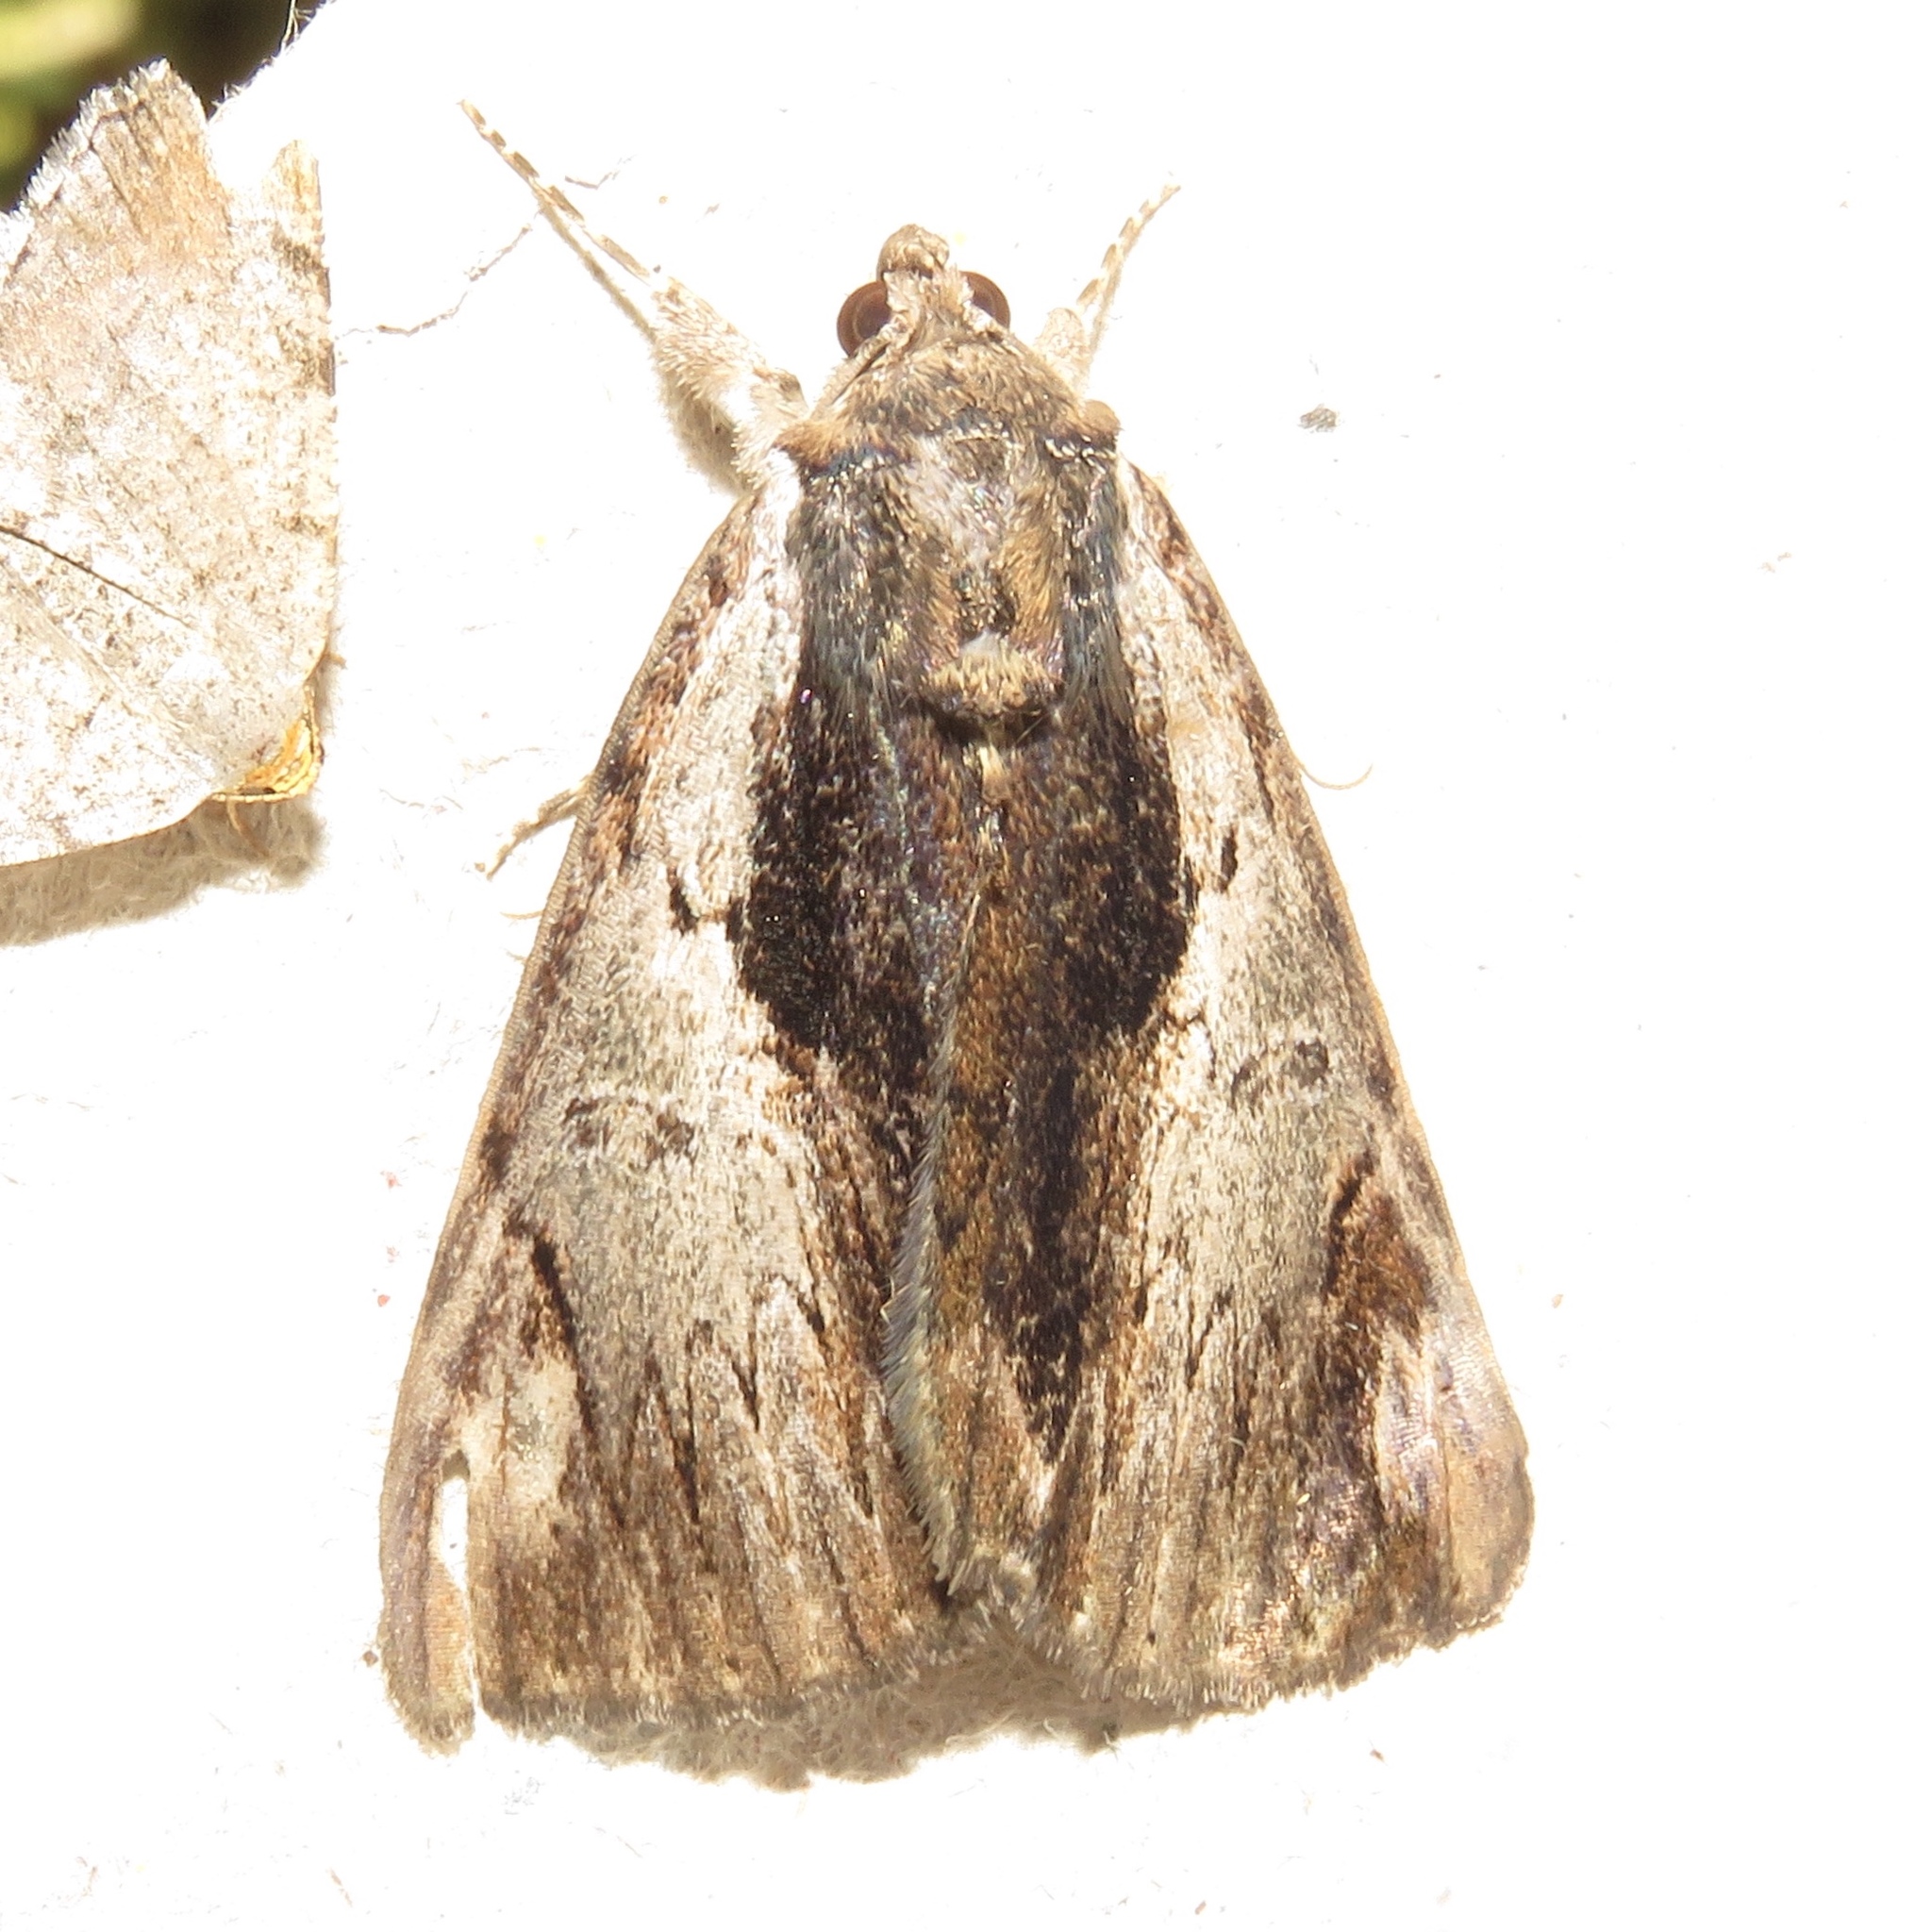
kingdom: Animalia
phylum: Arthropoda
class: Insecta
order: Lepidoptera
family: Erebidae
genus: Catocala
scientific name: Catocala ultronia
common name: Ultronia underwing
